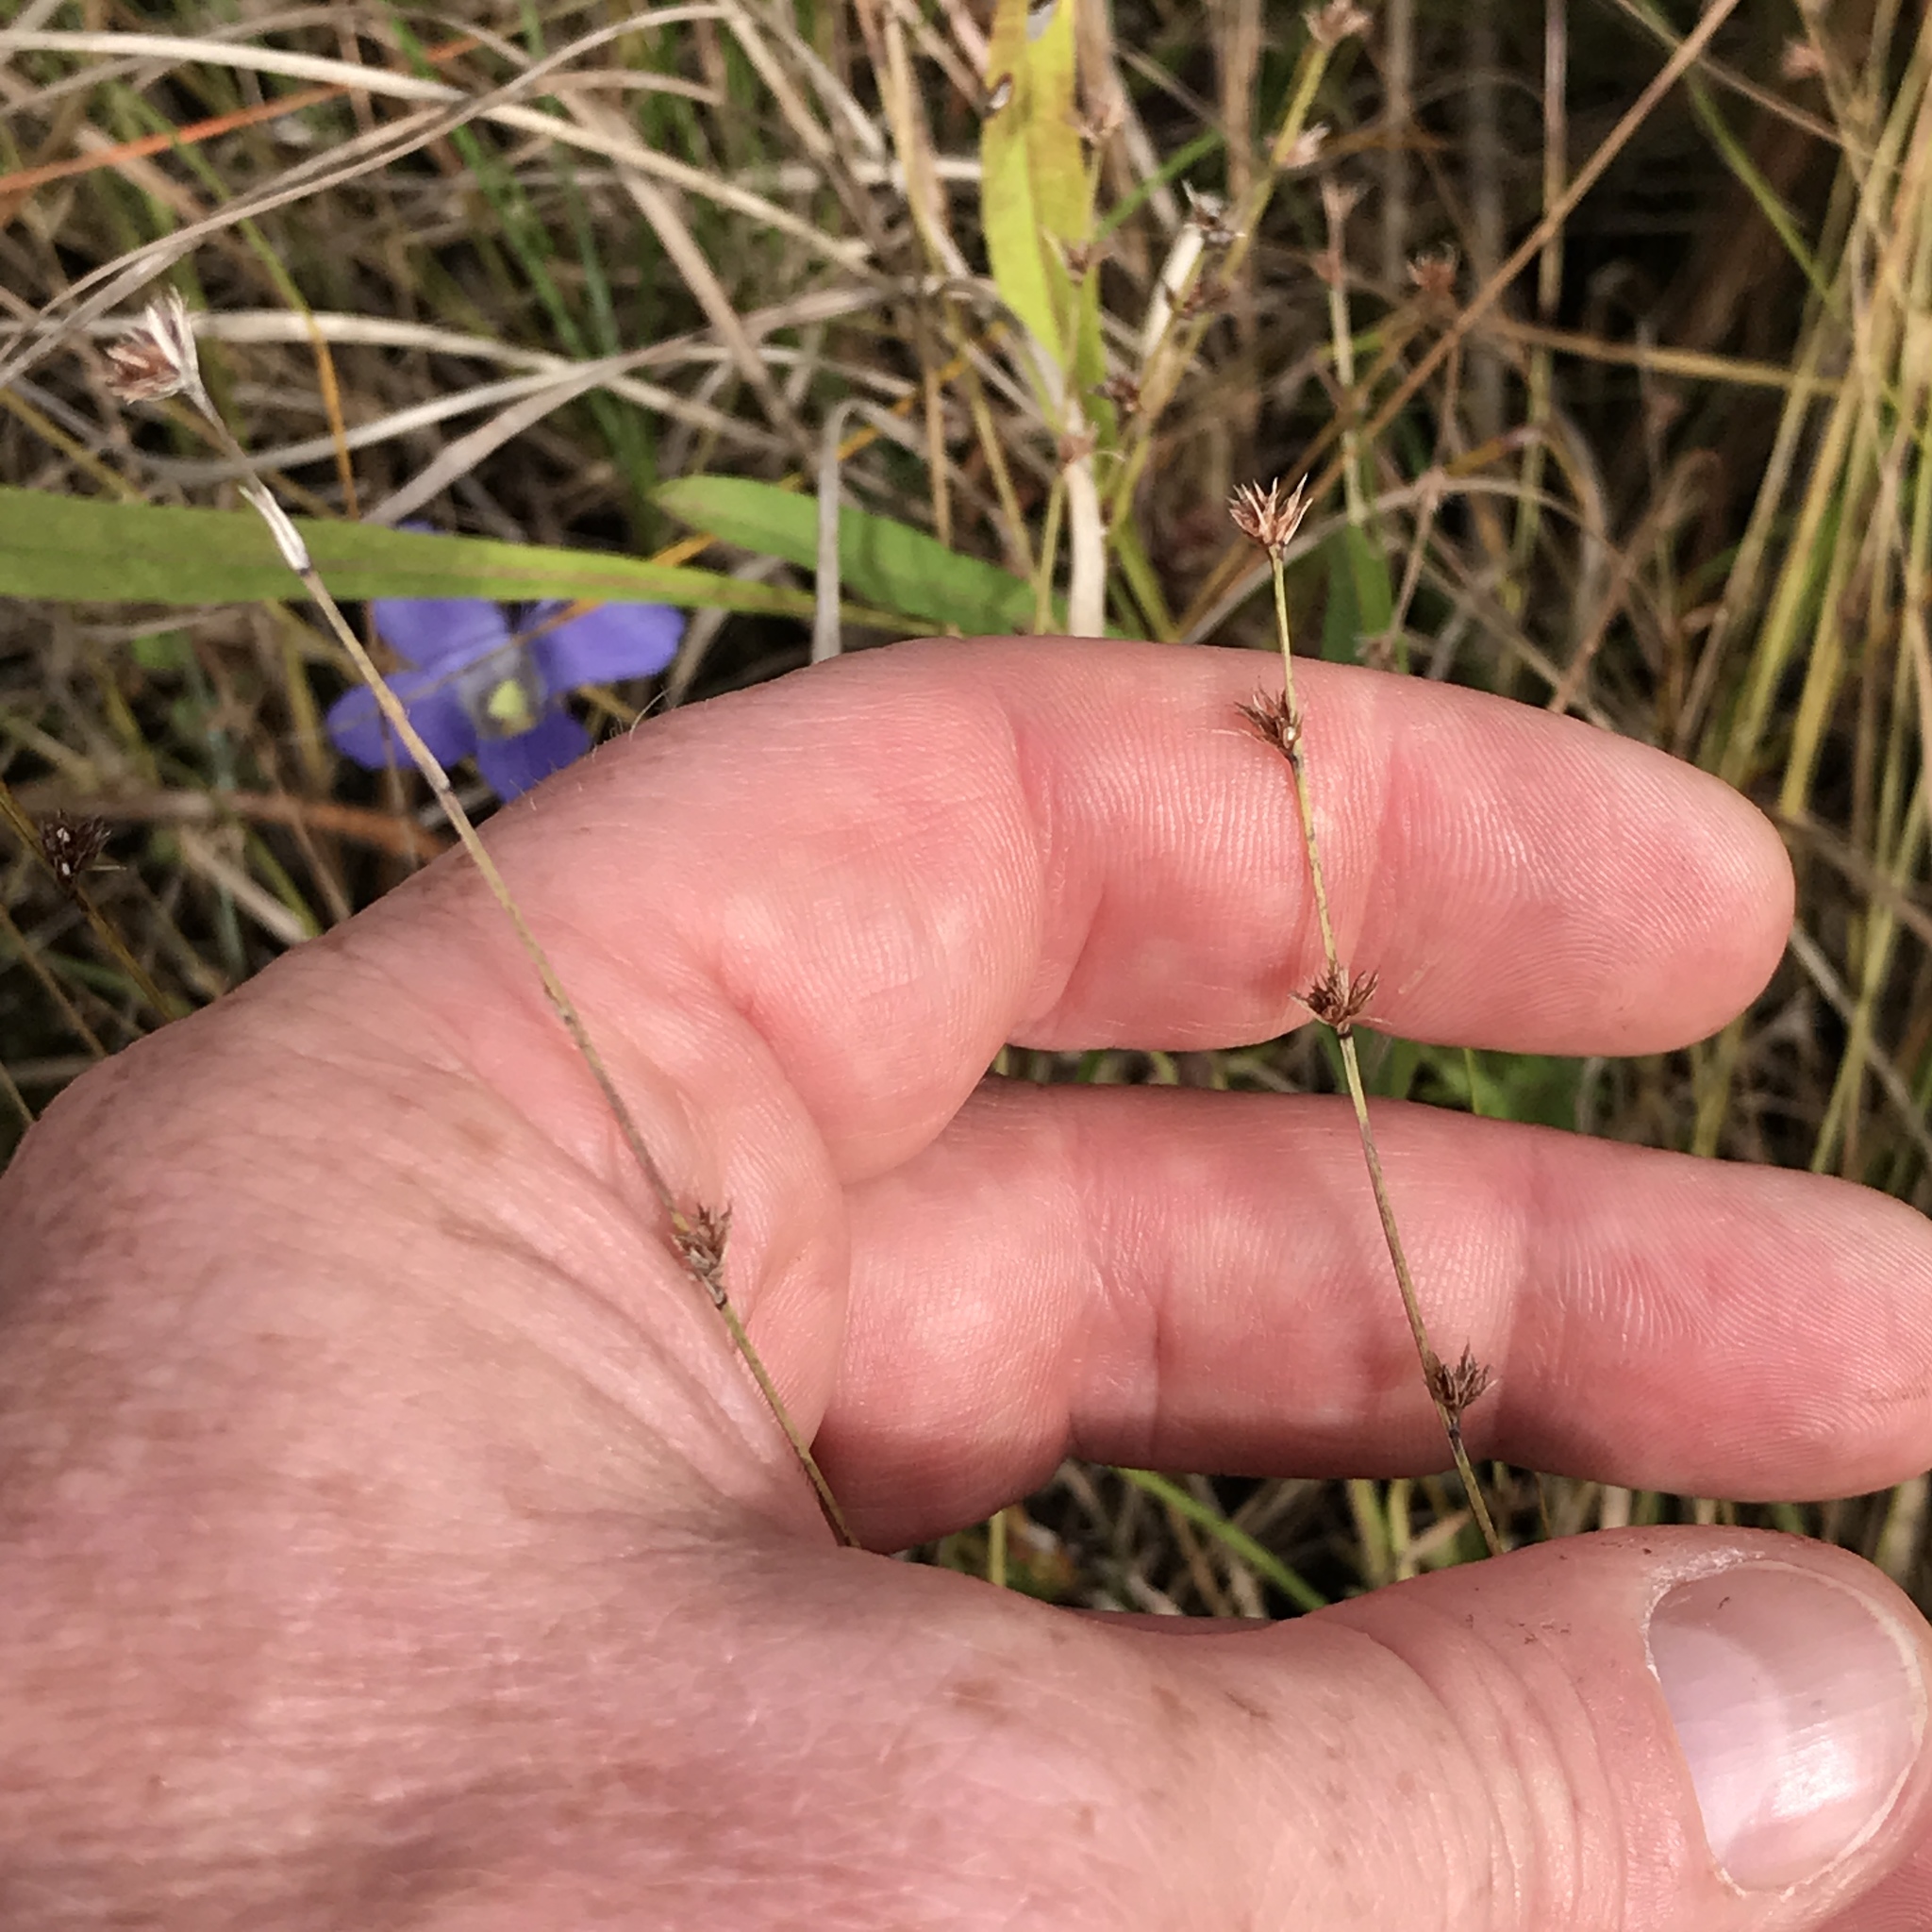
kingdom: Plantae
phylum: Tracheophyta
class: Liliopsida
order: Poales
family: Cyperaceae
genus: Scleria
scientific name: Scleria verticillata
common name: Low nutrush
